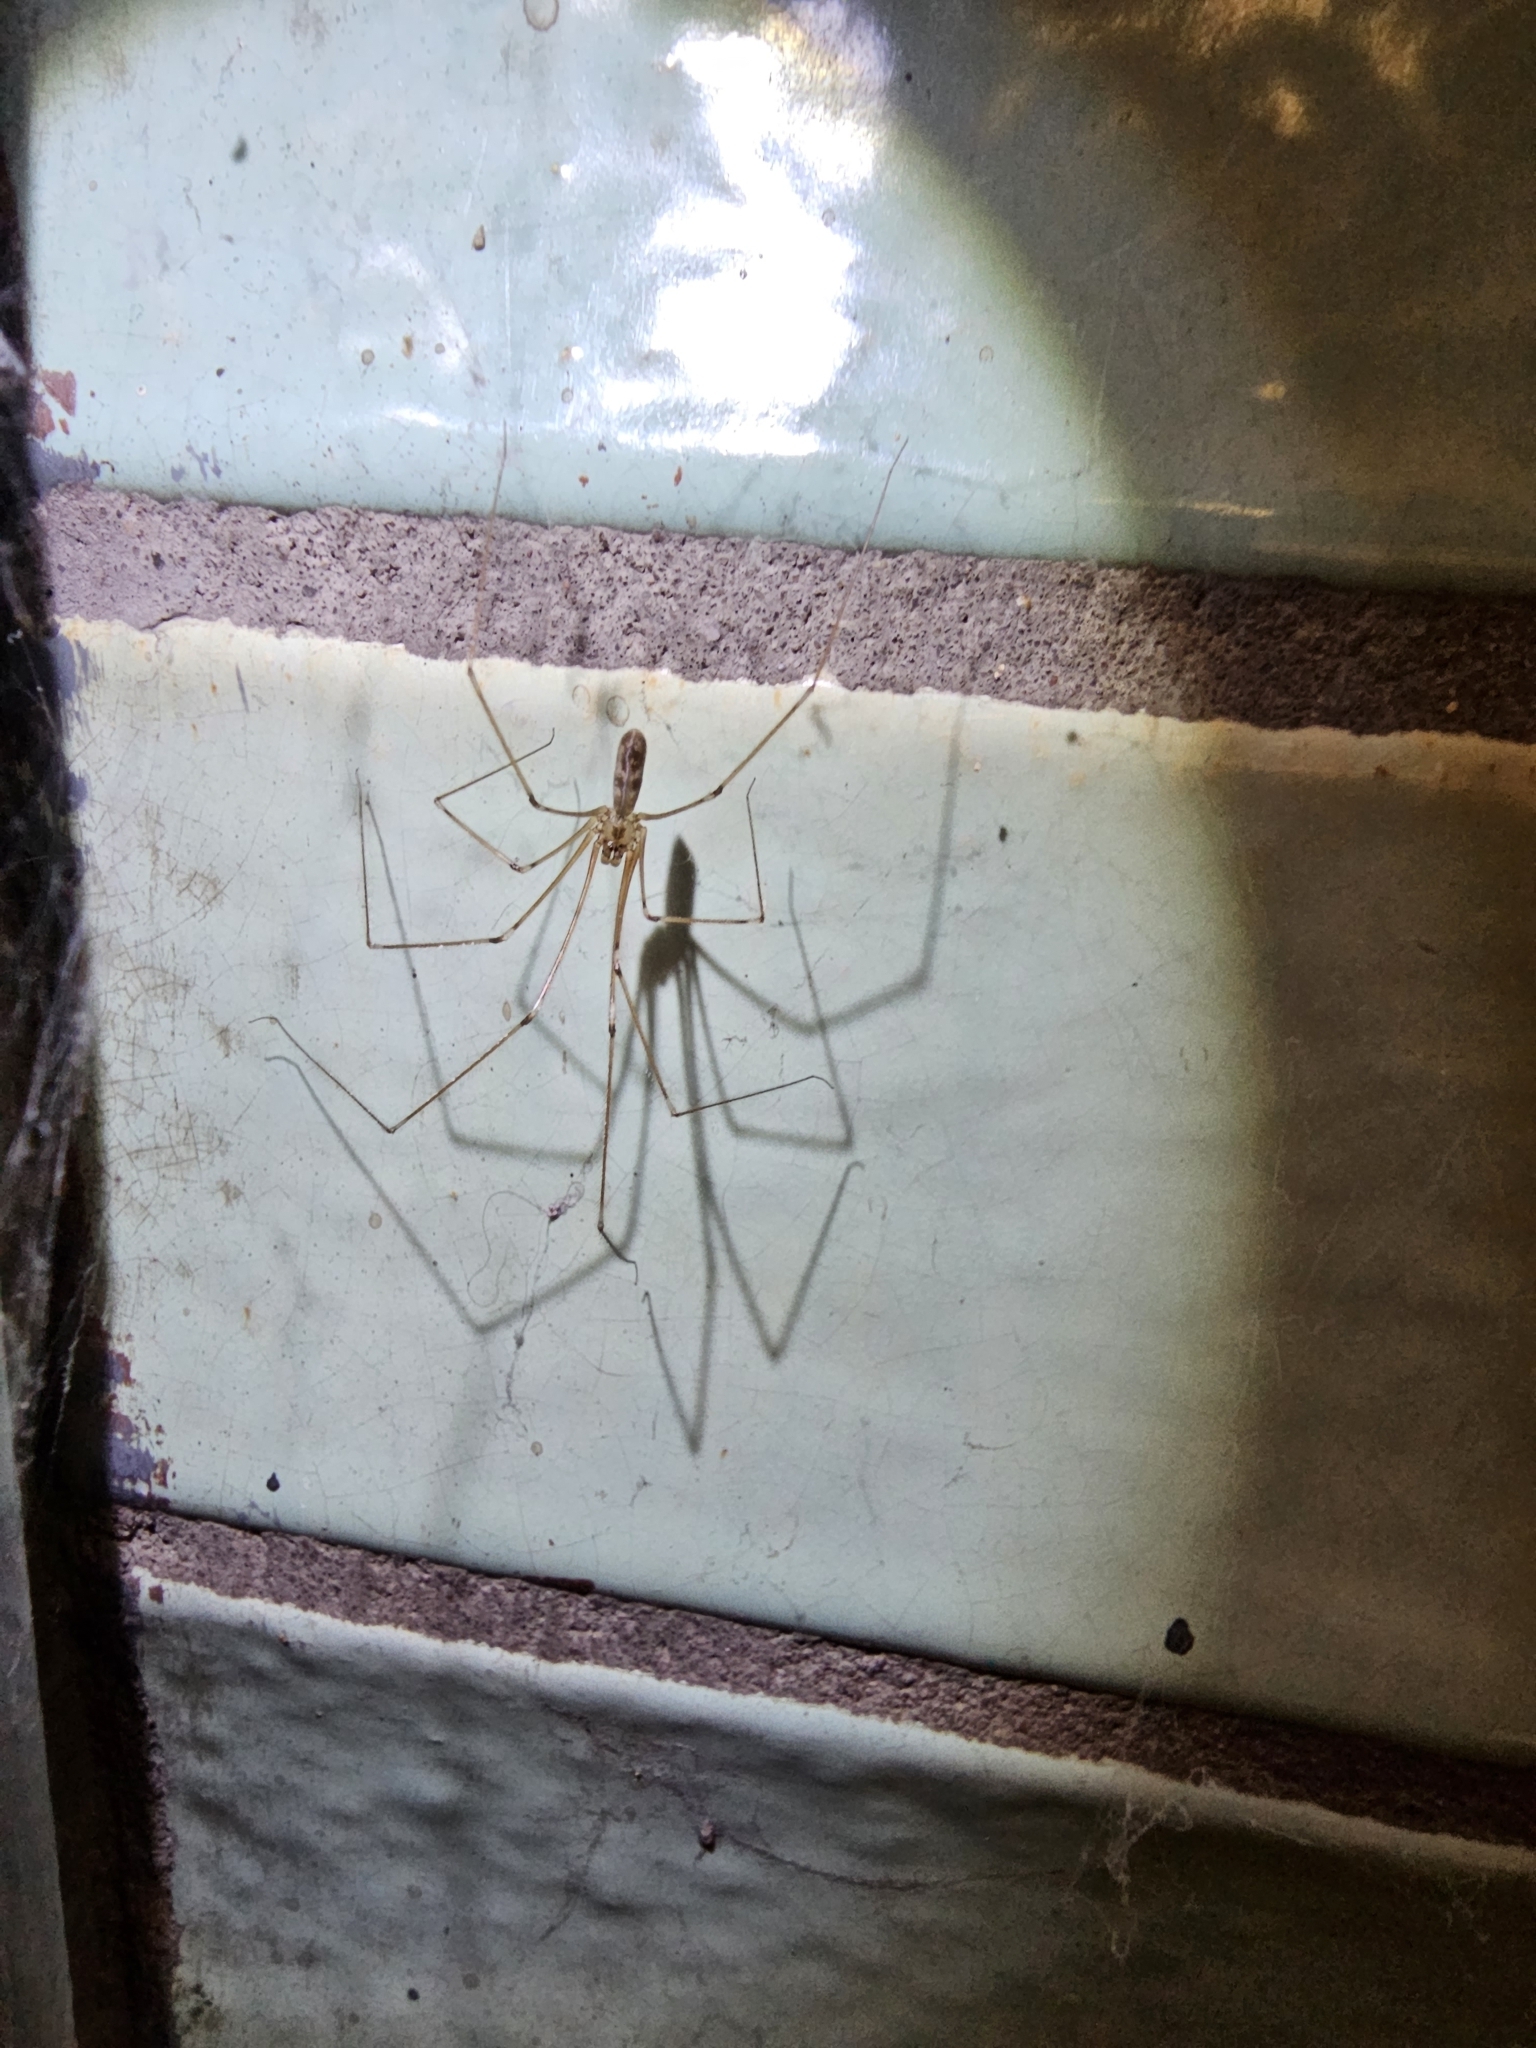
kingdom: Animalia
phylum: Arthropoda
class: Arachnida
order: Araneae
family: Pholcidae
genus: Pholcus
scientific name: Pholcus phalangioides
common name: Longbodied cellar spider
